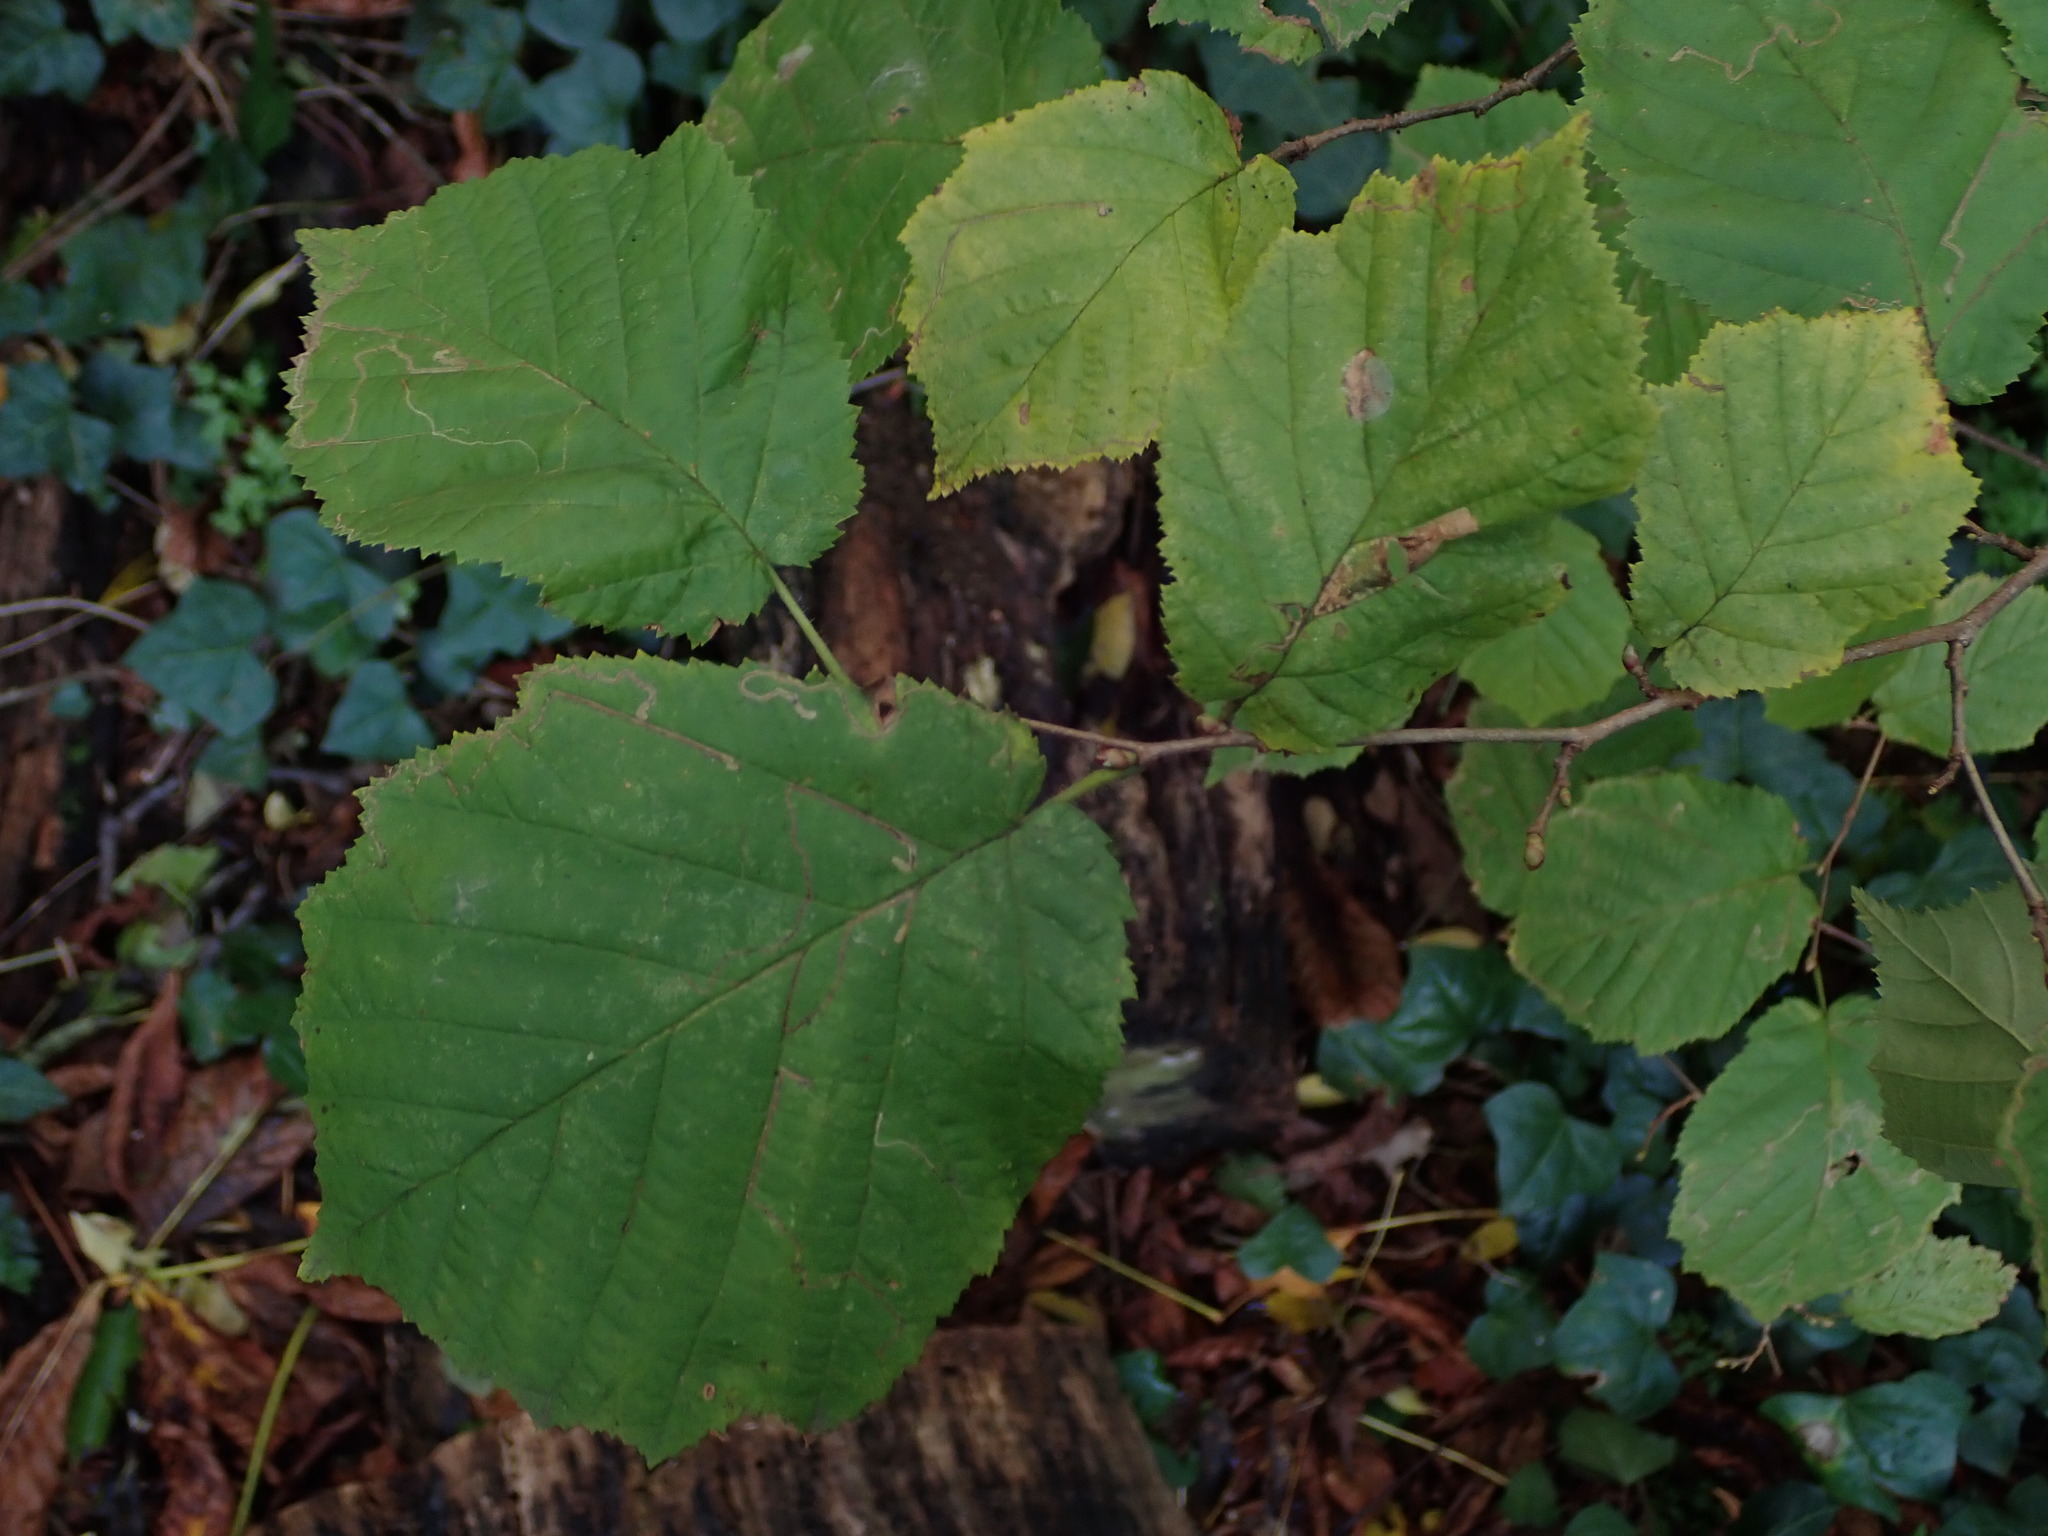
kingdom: Plantae
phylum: Tracheophyta
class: Magnoliopsida
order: Fagales
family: Betulaceae
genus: Corylus
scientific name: Corylus avellana
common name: European hazel
